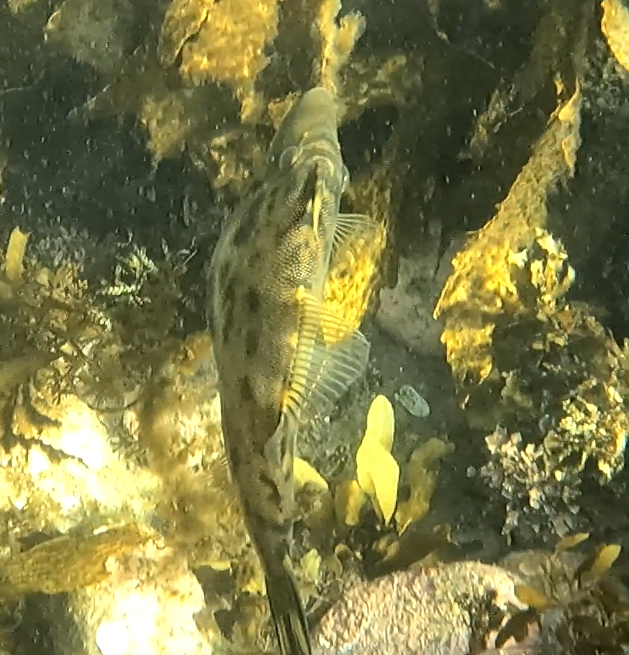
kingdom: Animalia
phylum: Chordata
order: Tetraodontiformes
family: Monacanthidae
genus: Scobinichthys
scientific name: Scobinichthys granulatus
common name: Rough leatherjacket
